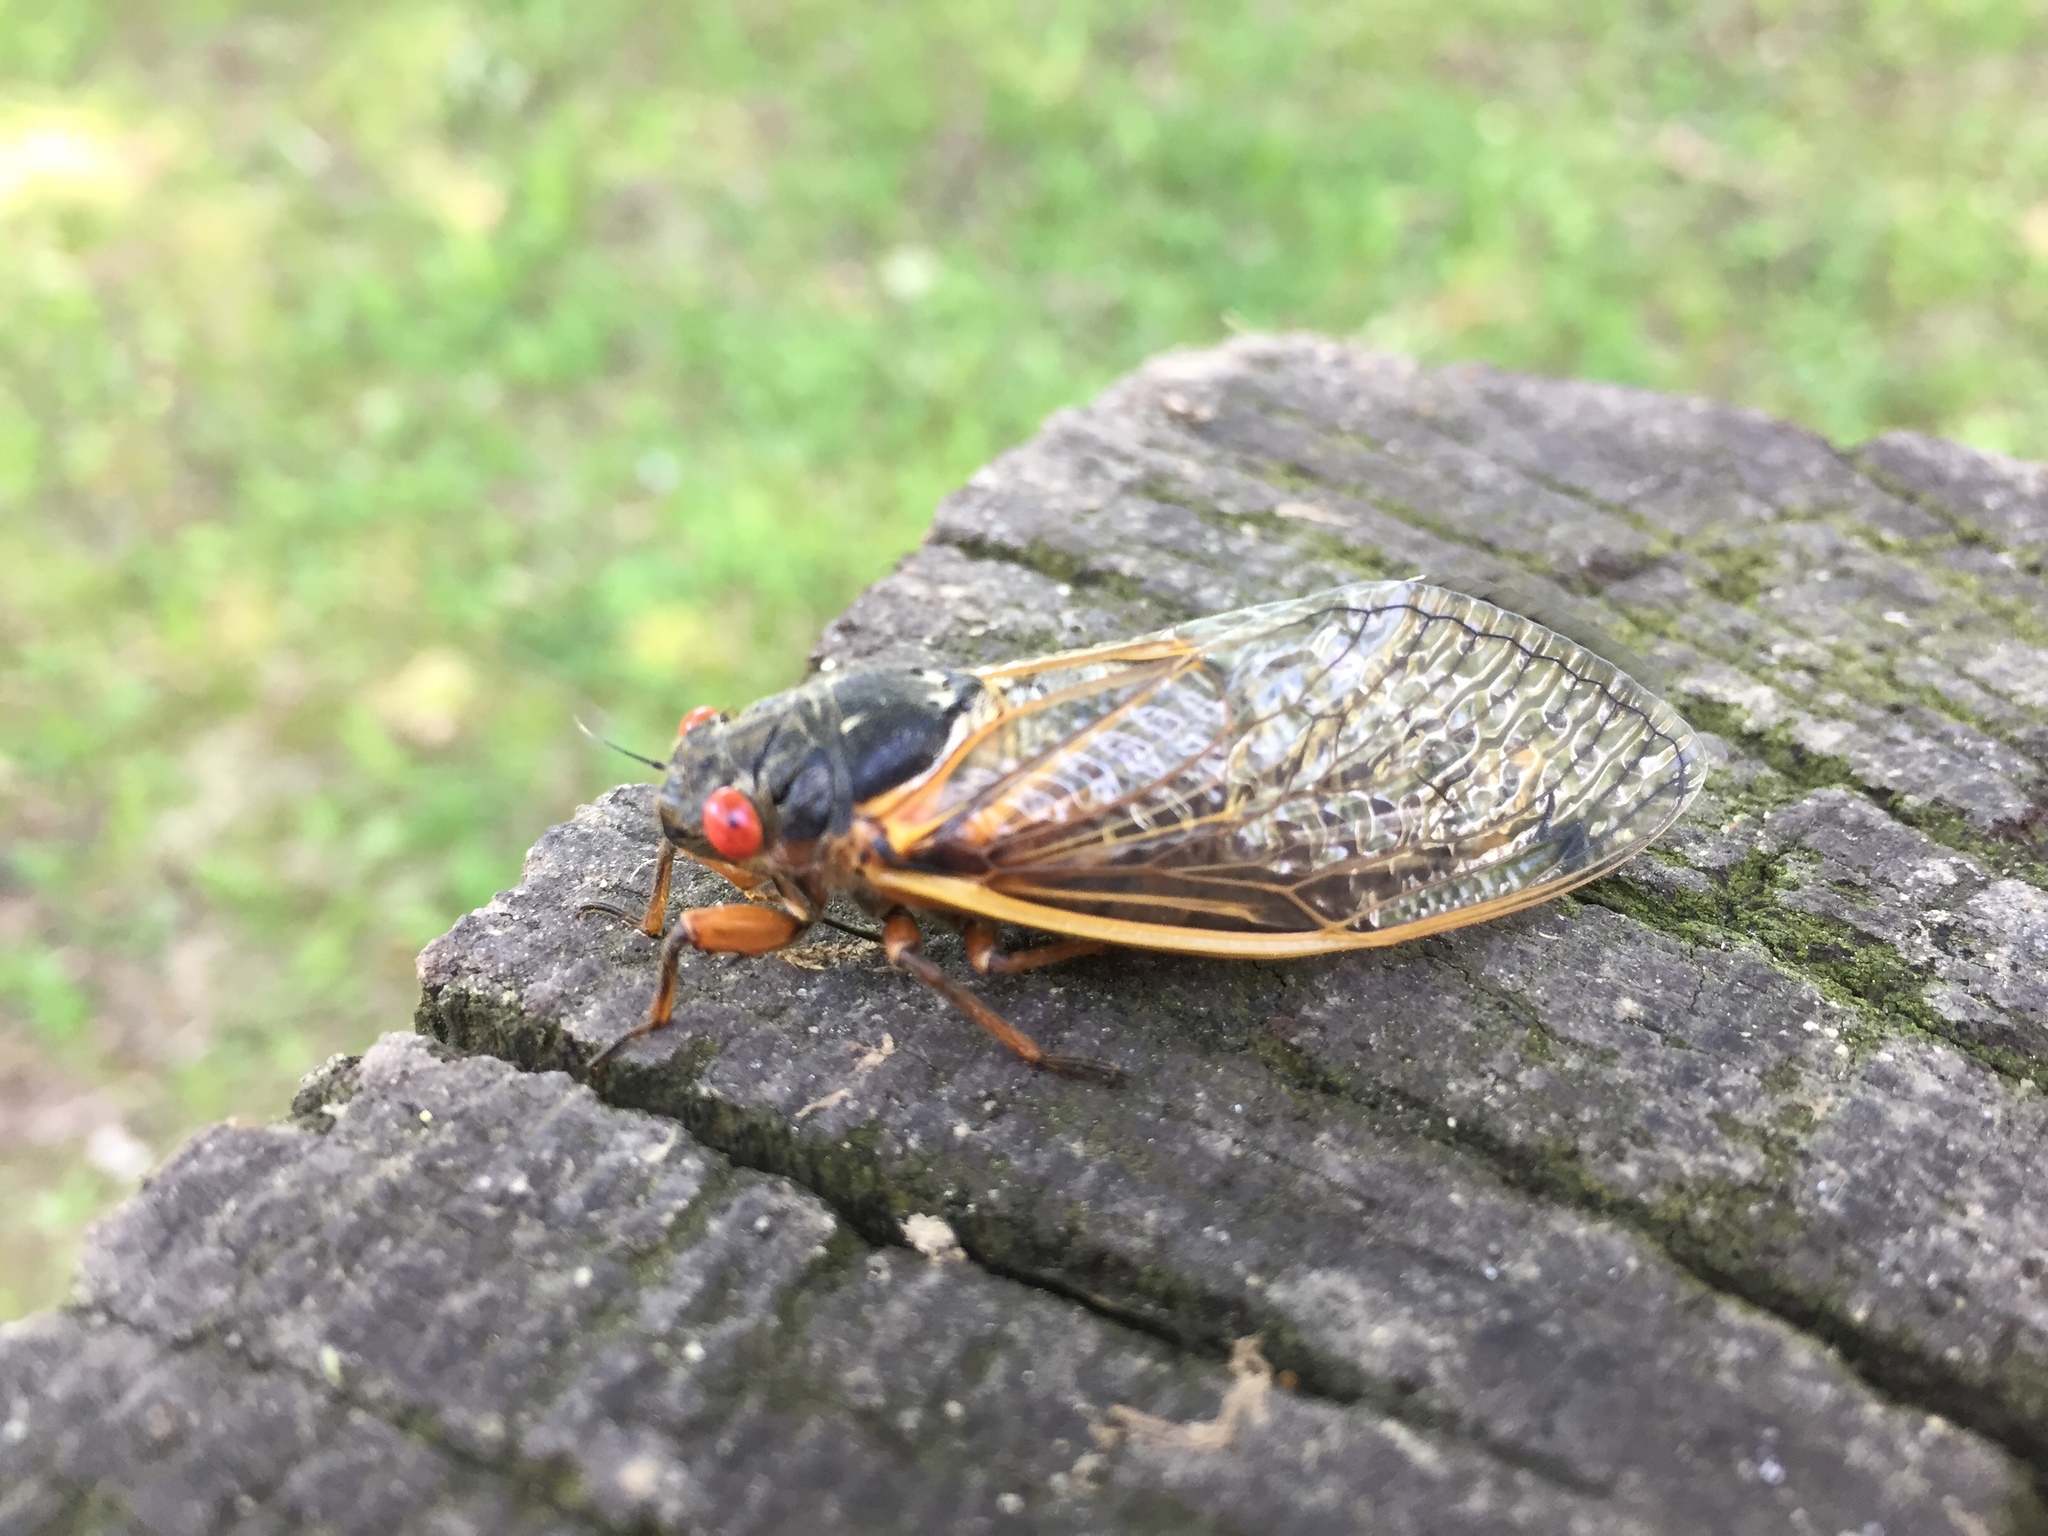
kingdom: Animalia
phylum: Arthropoda
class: Insecta
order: Hemiptera
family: Cicadidae
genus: Magicicada
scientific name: Magicicada septendecim
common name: Periodical cicada
